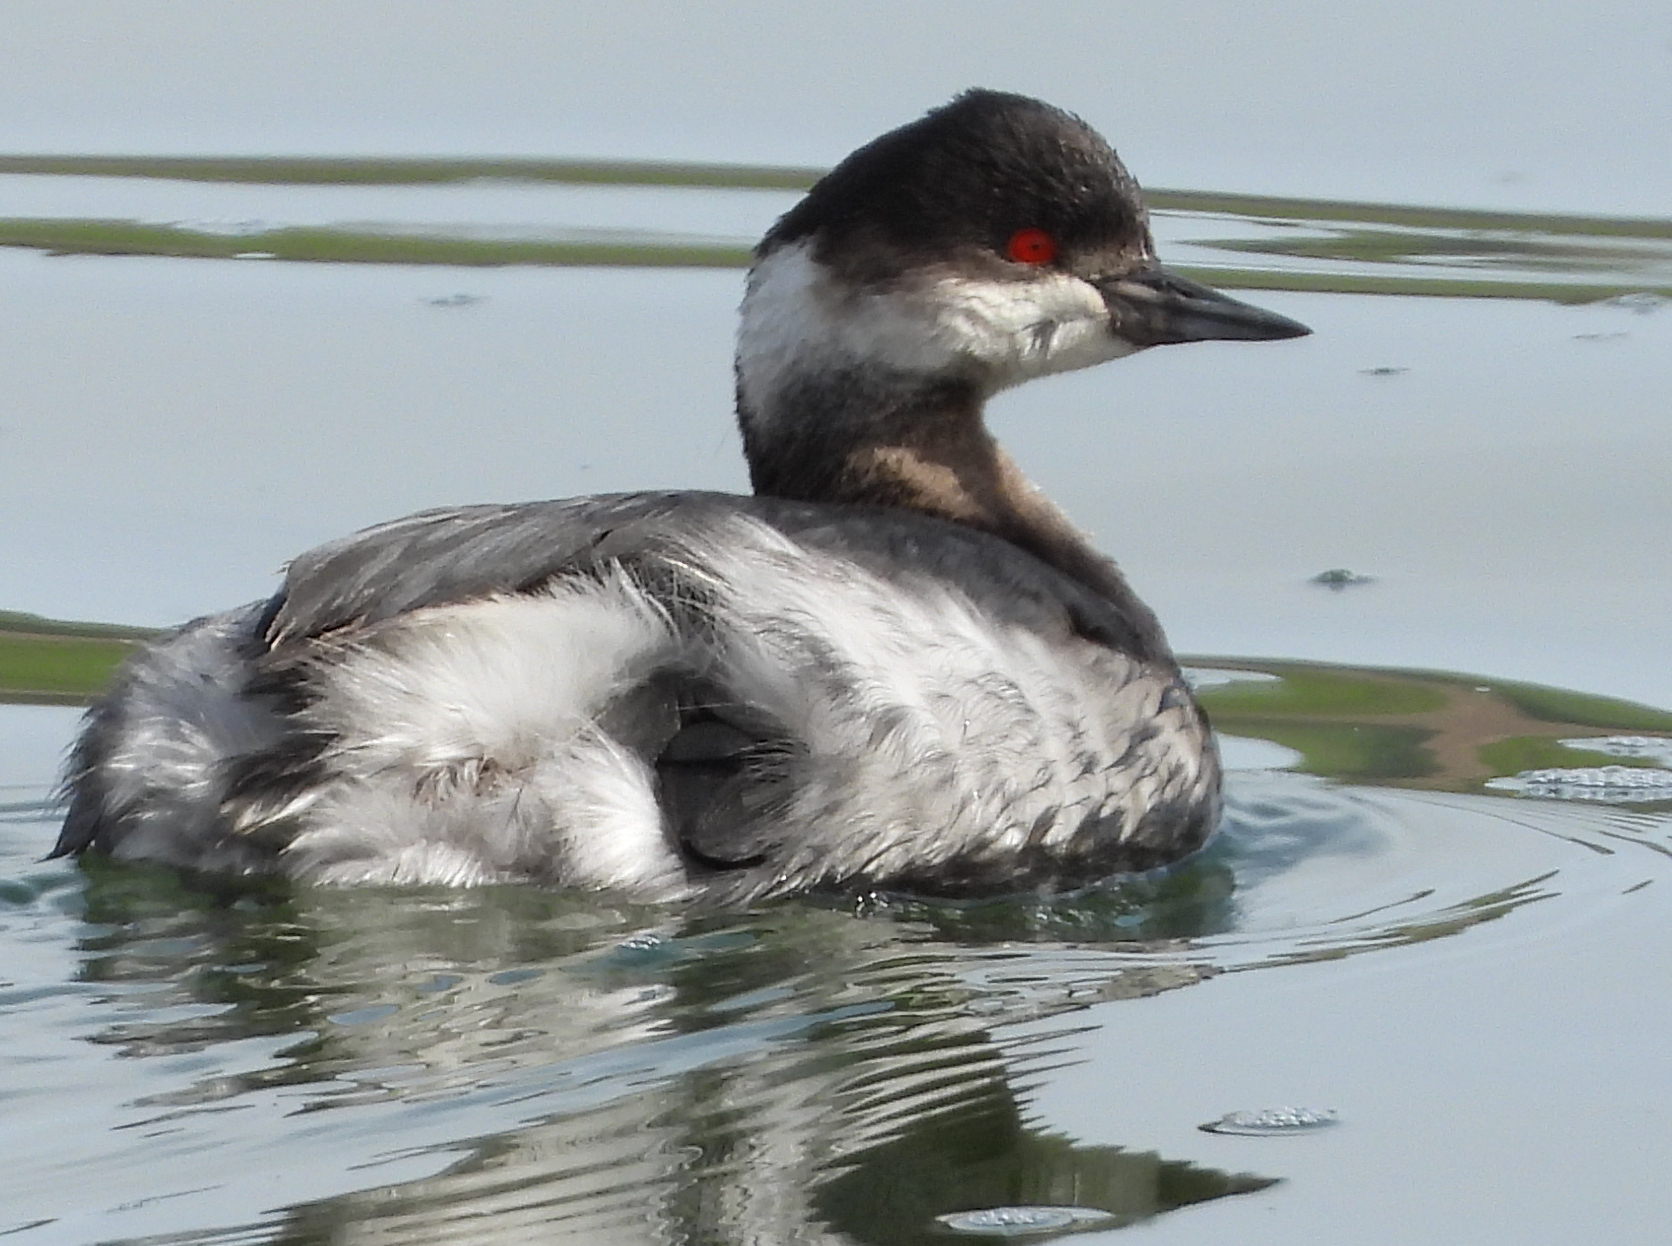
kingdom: Animalia
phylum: Chordata
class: Aves
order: Podicipediformes
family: Podicipedidae
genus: Podiceps
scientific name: Podiceps nigricollis
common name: Black-necked grebe
